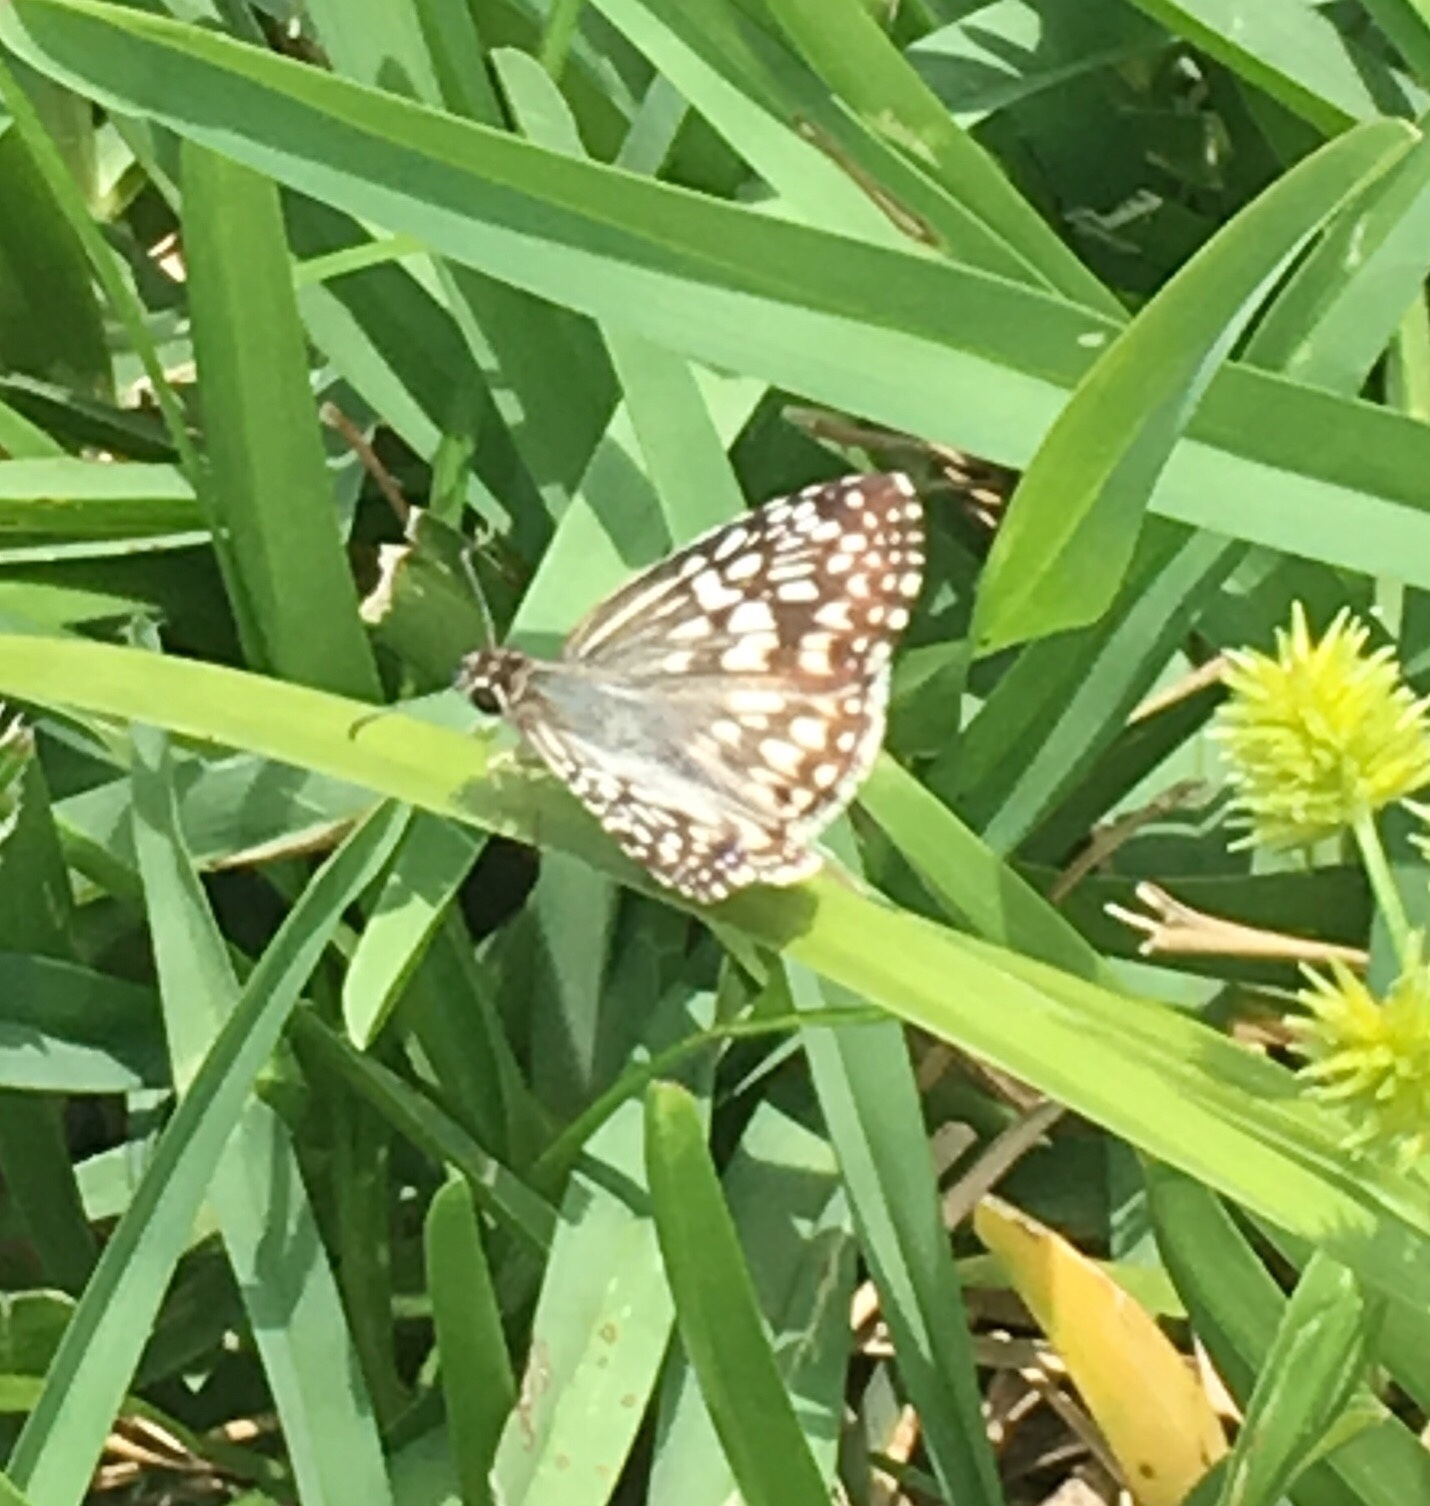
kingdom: Animalia
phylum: Arthropoda
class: Insecta
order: Lepidoptera
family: Hesperiidae
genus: Pyrgus
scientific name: Pyrgus oileus
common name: Tropical checkered-skipper
